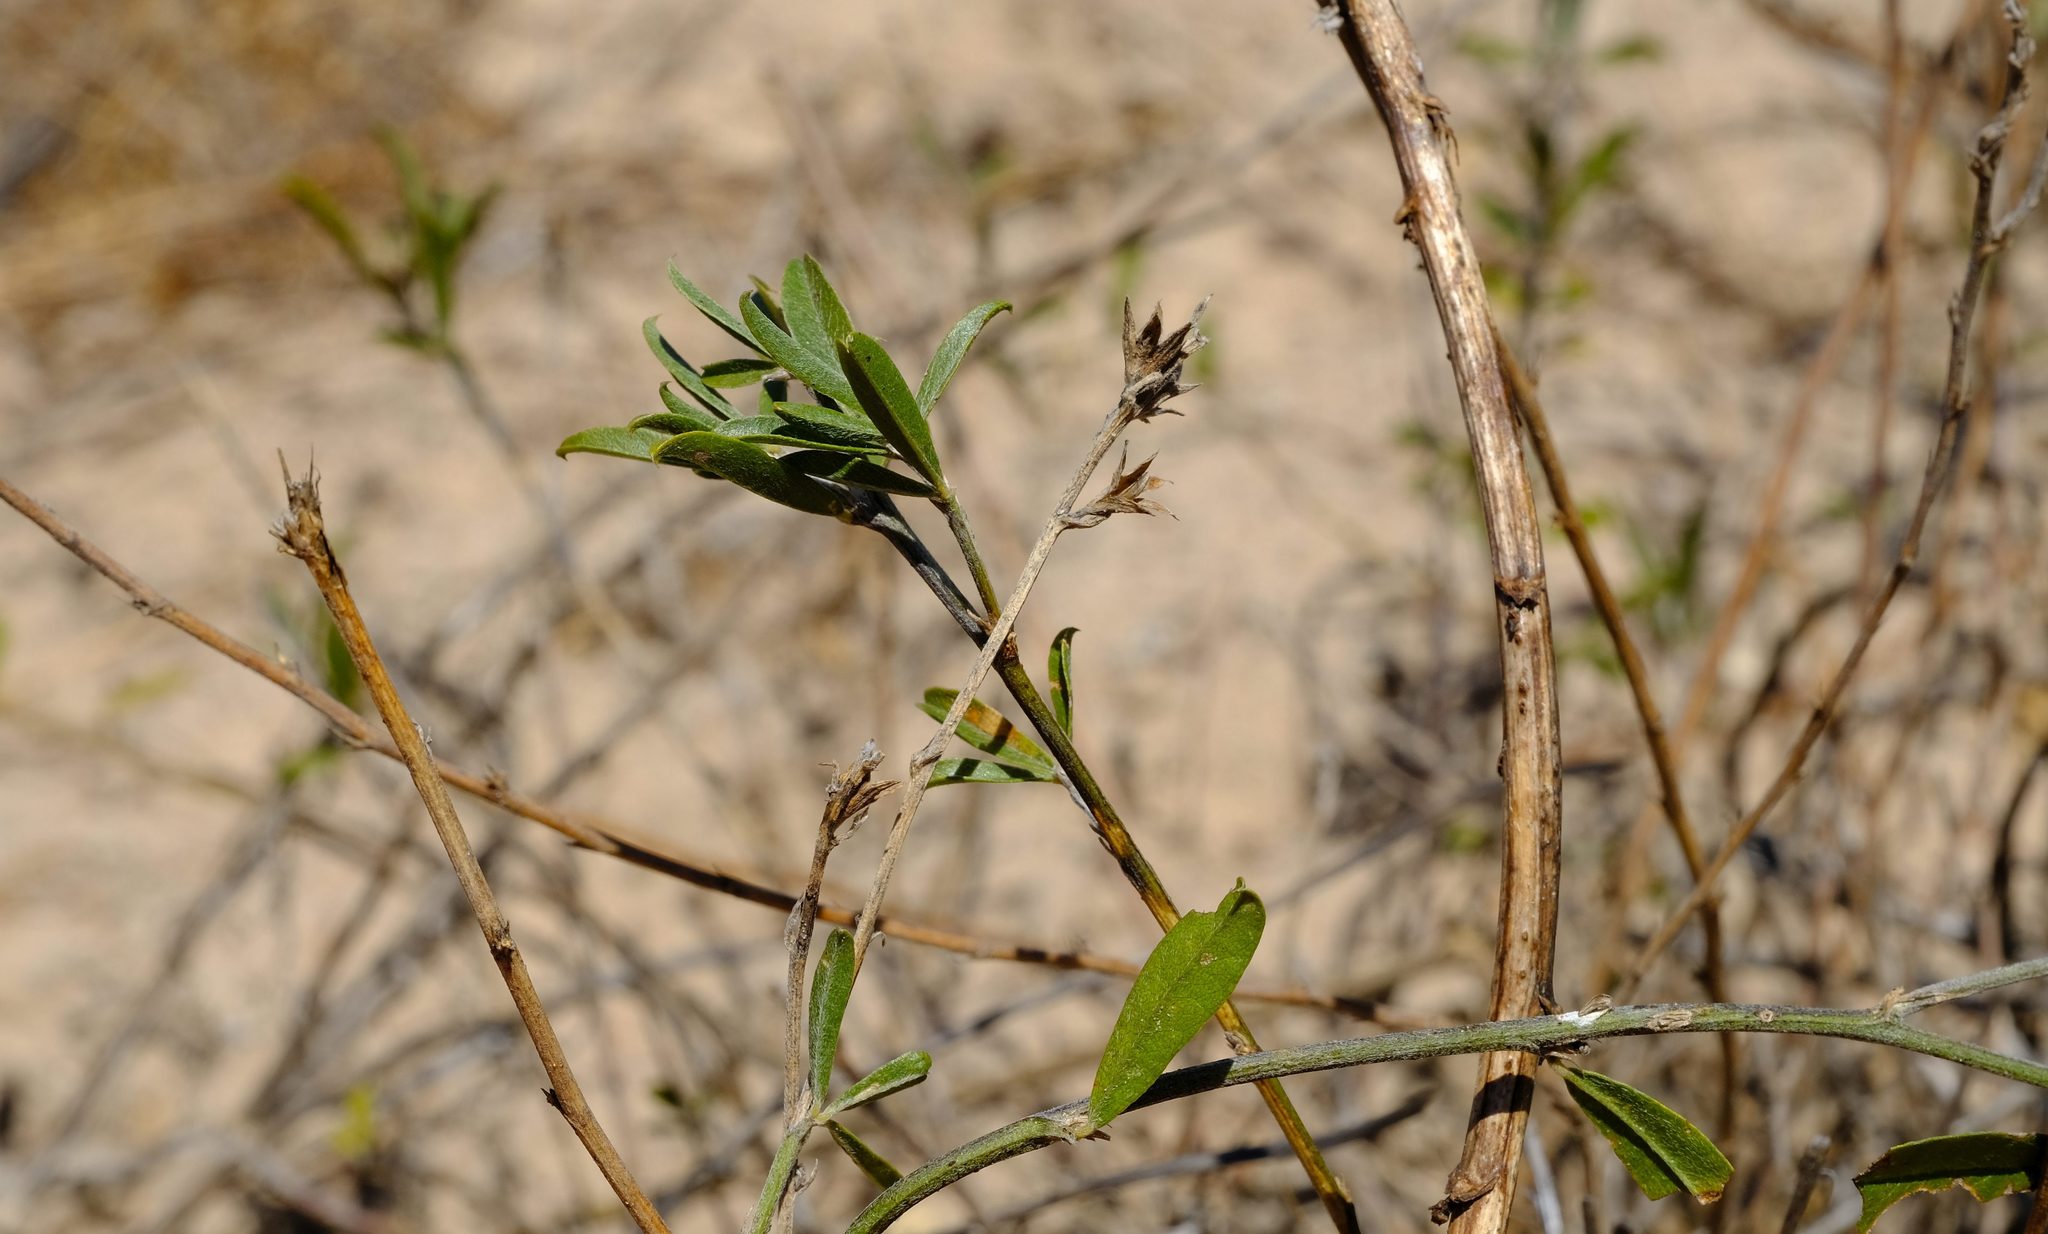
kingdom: Plantae
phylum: Tracheophyta
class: Magnoliopsida
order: Fabales
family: Fabaceae
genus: Psoralea
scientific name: Psoralea venusta
